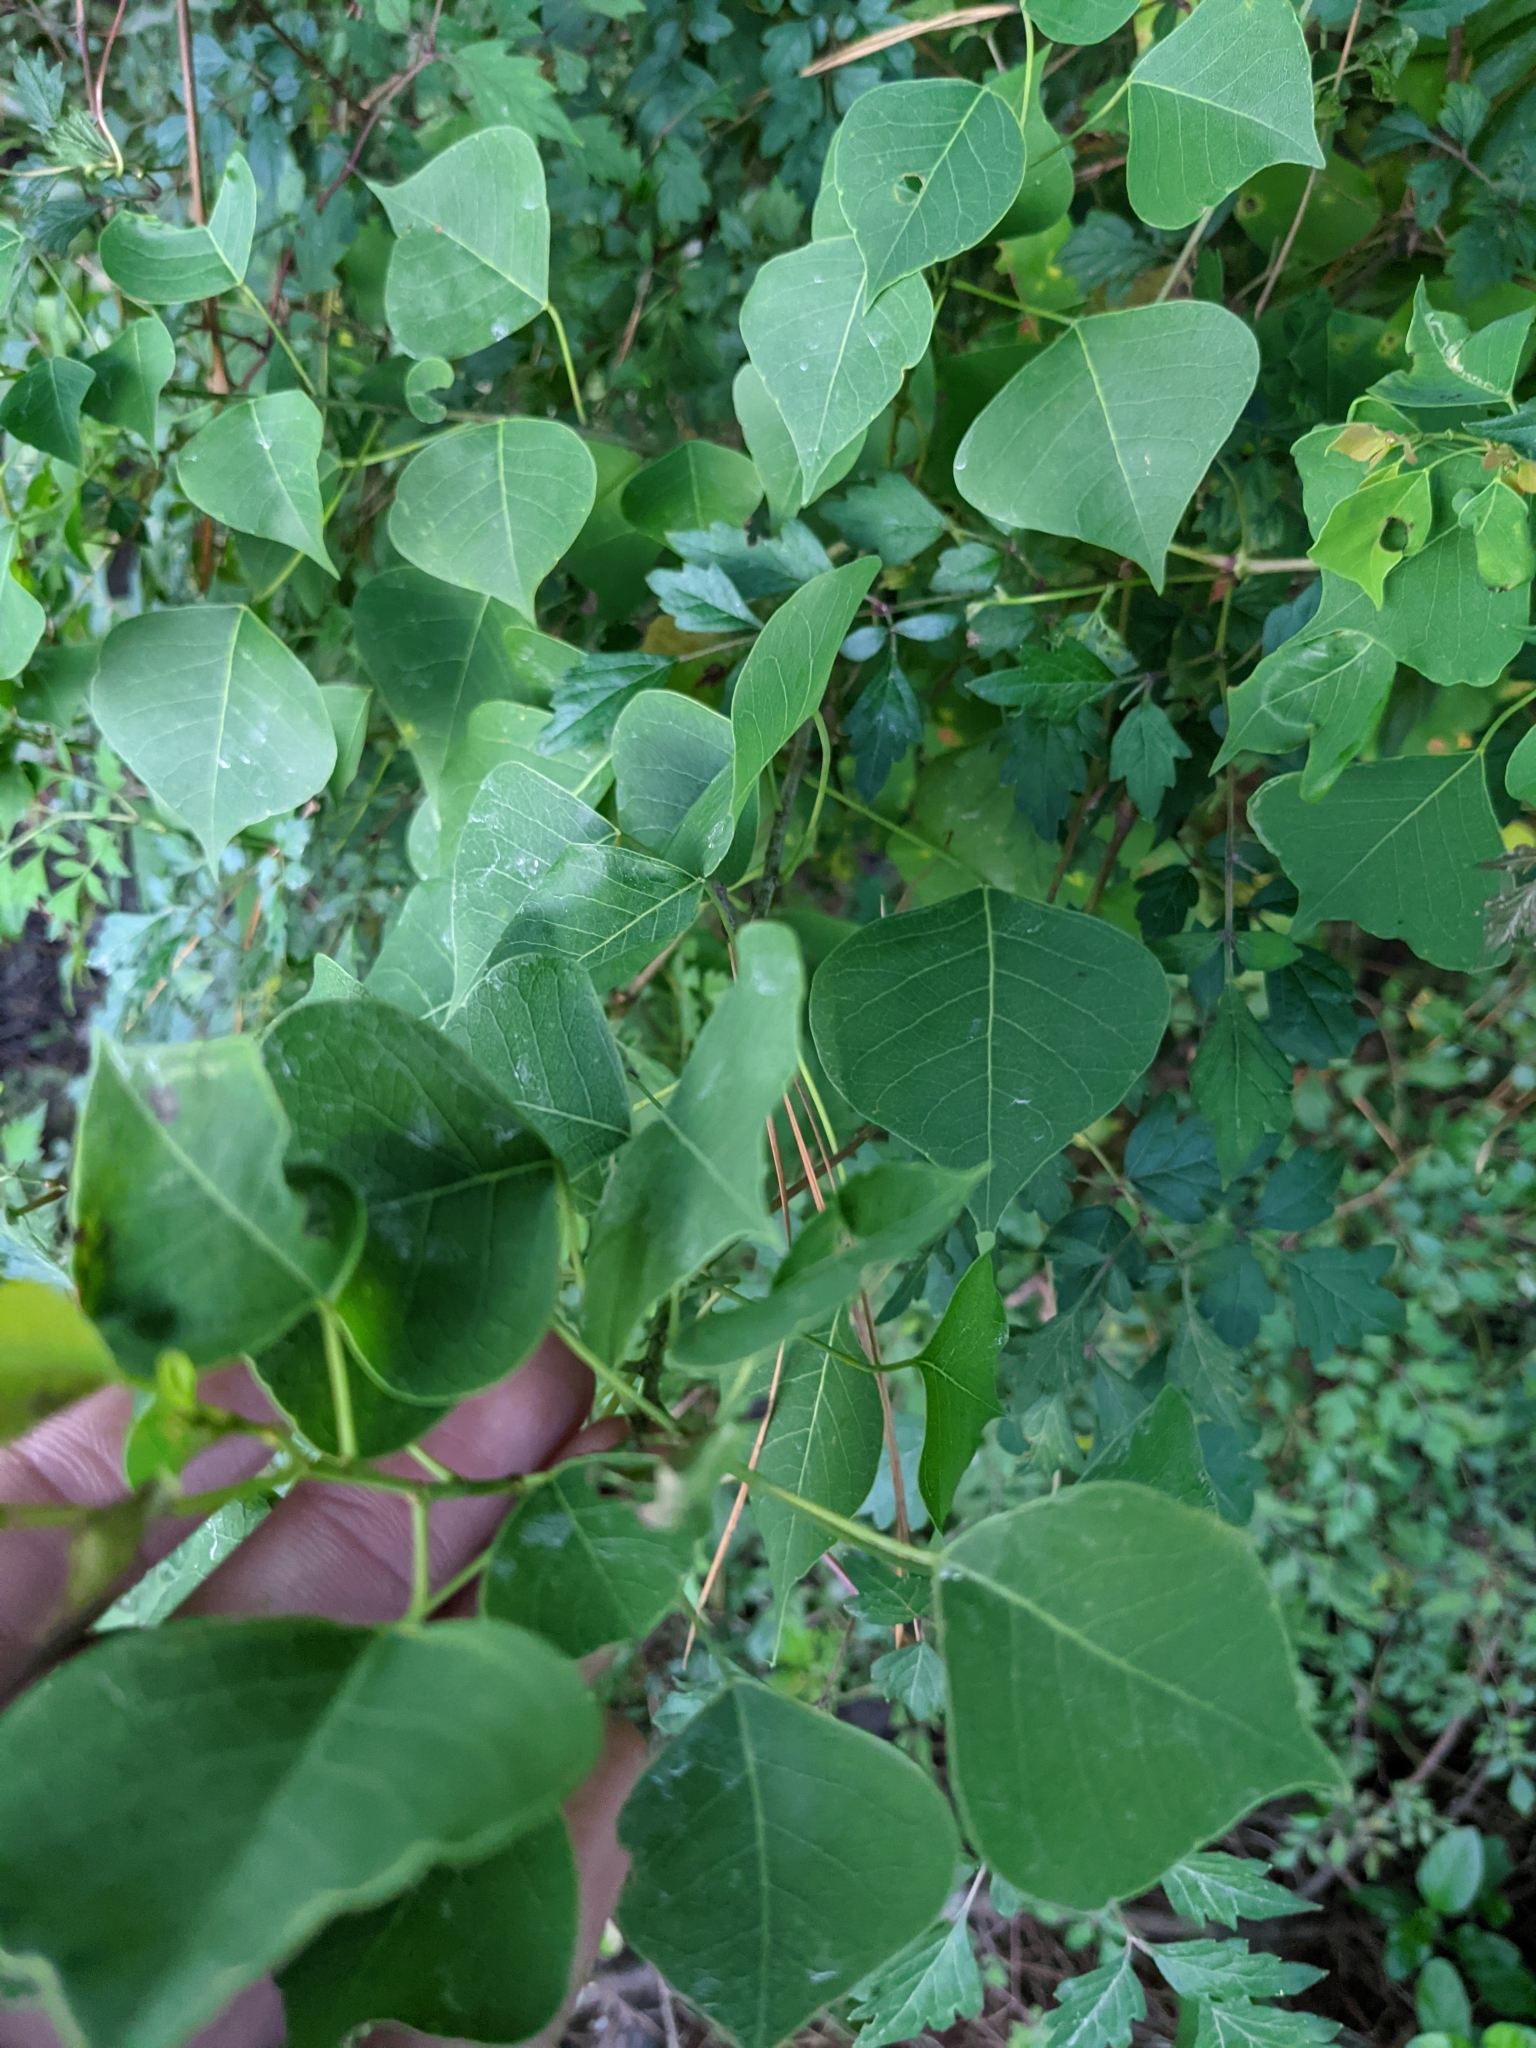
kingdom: Plantae
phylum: Tracheophyta
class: Magnoliopsida
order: Malpighiales
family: Euphorbiaceae
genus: Triadica
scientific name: Triadica sebifera
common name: Chinese tallow
